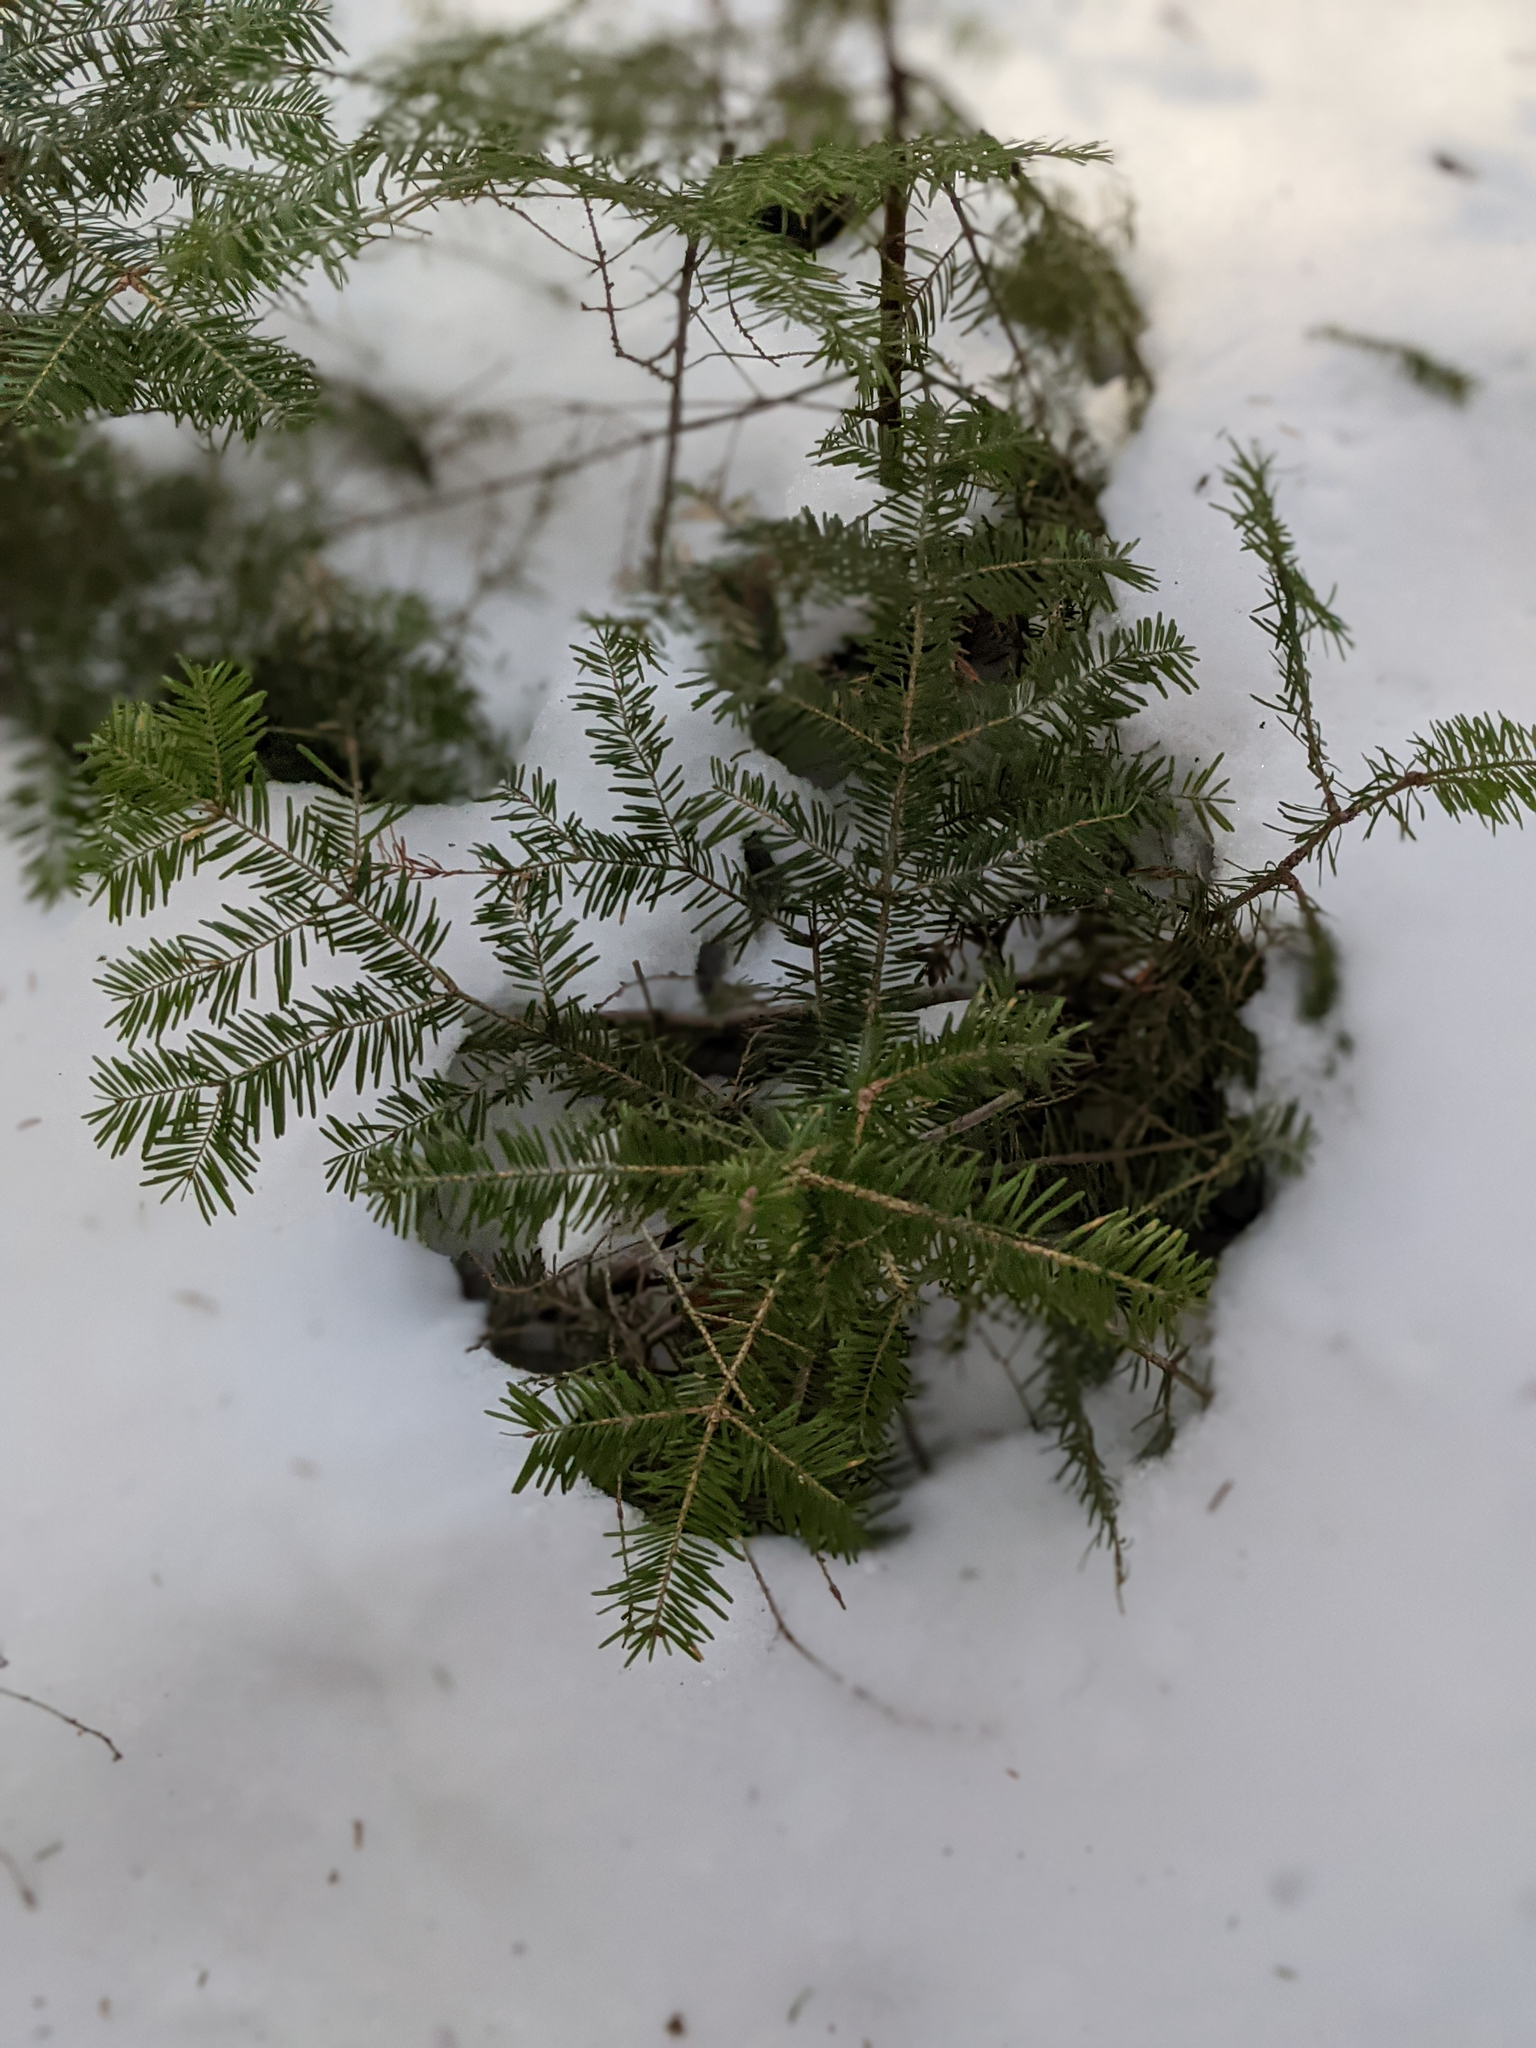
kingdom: Plantae
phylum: Tracheophyta
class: Pinopsida
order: Pinales
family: Pinaceae
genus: Abies
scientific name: Abies balsamea
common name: Balsam fir
